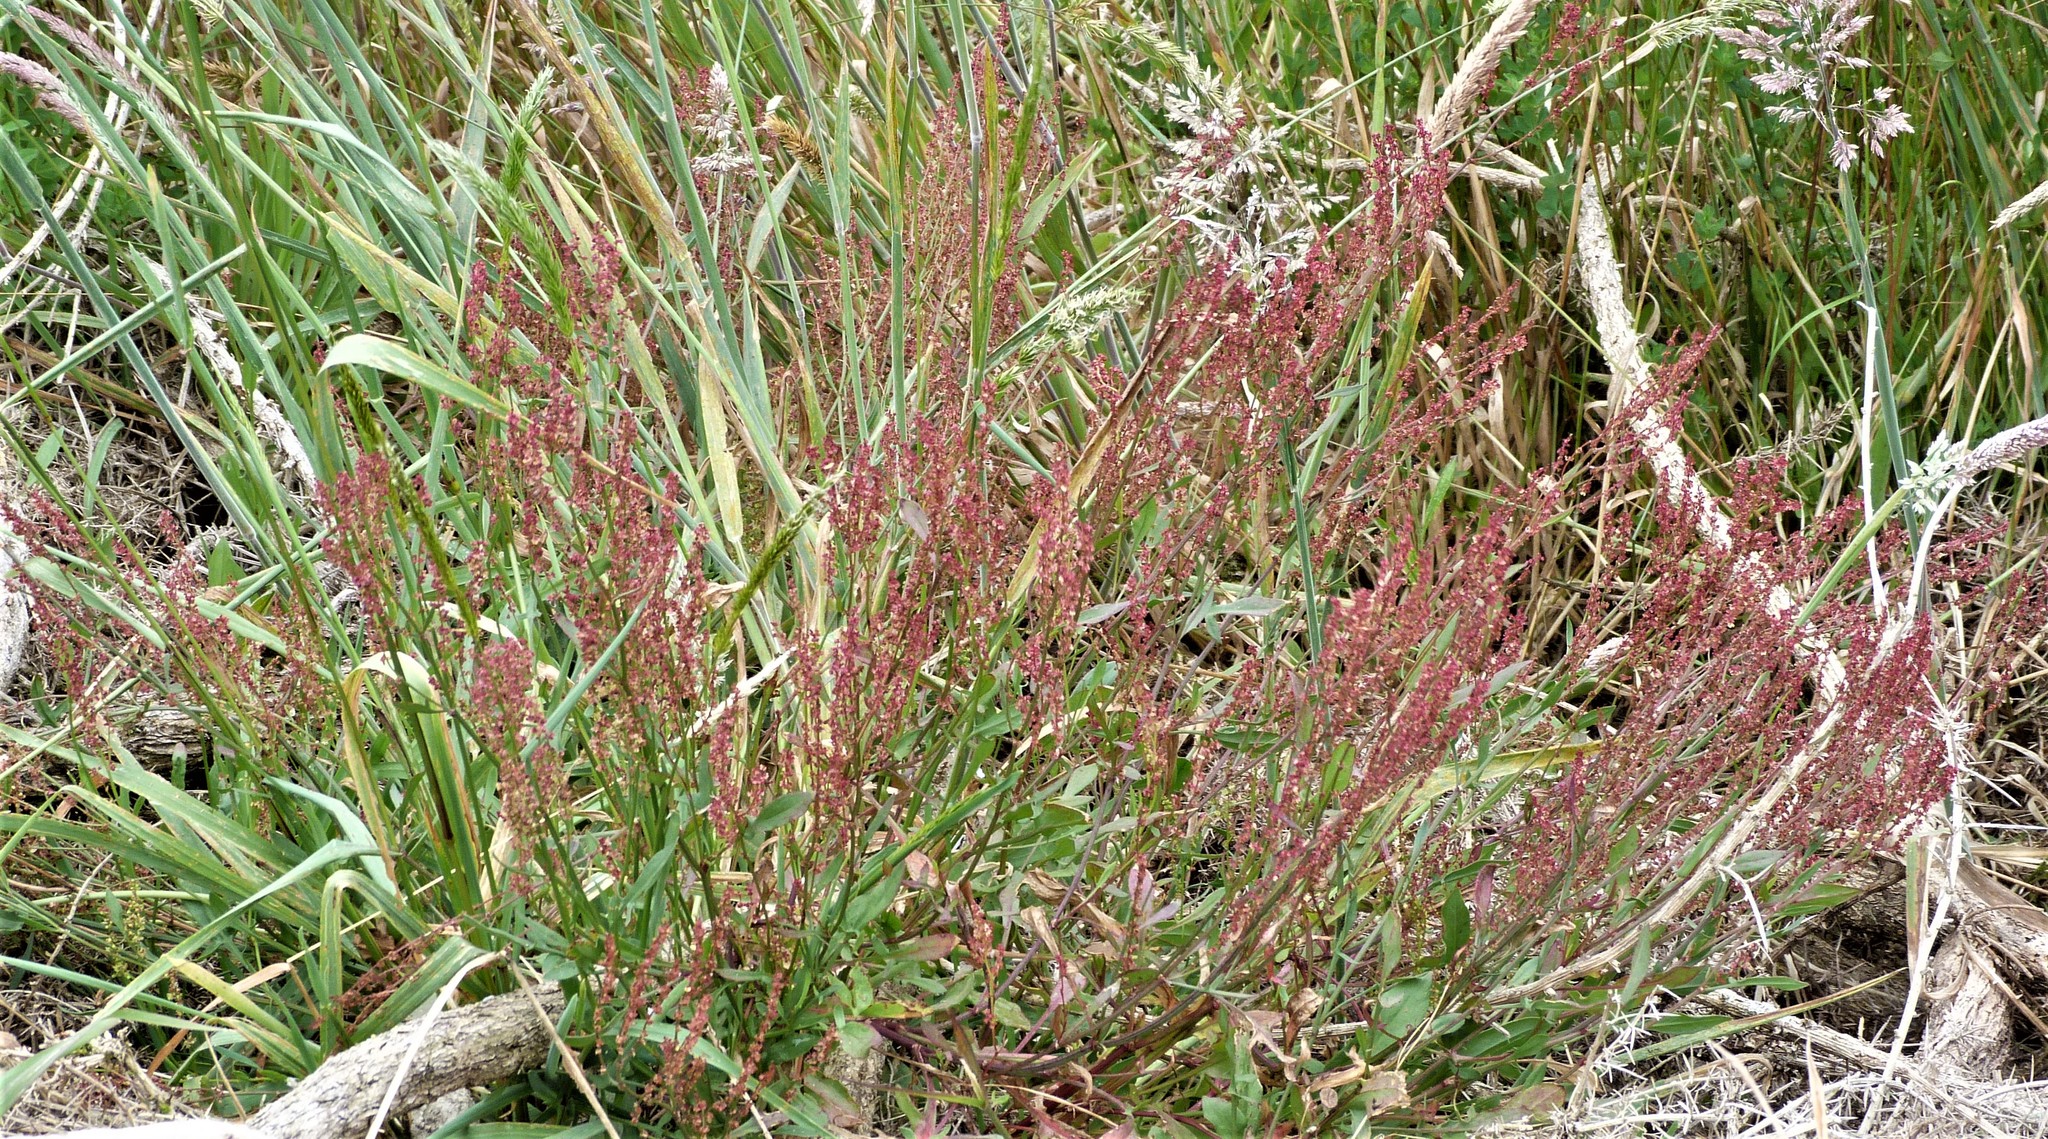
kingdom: Plantae
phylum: Tracheophyta
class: Magnoliopsida
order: Caryophyllales
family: Polygonaceae
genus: Rumex
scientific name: Rumex acetosella
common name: Common sheep sorrel
